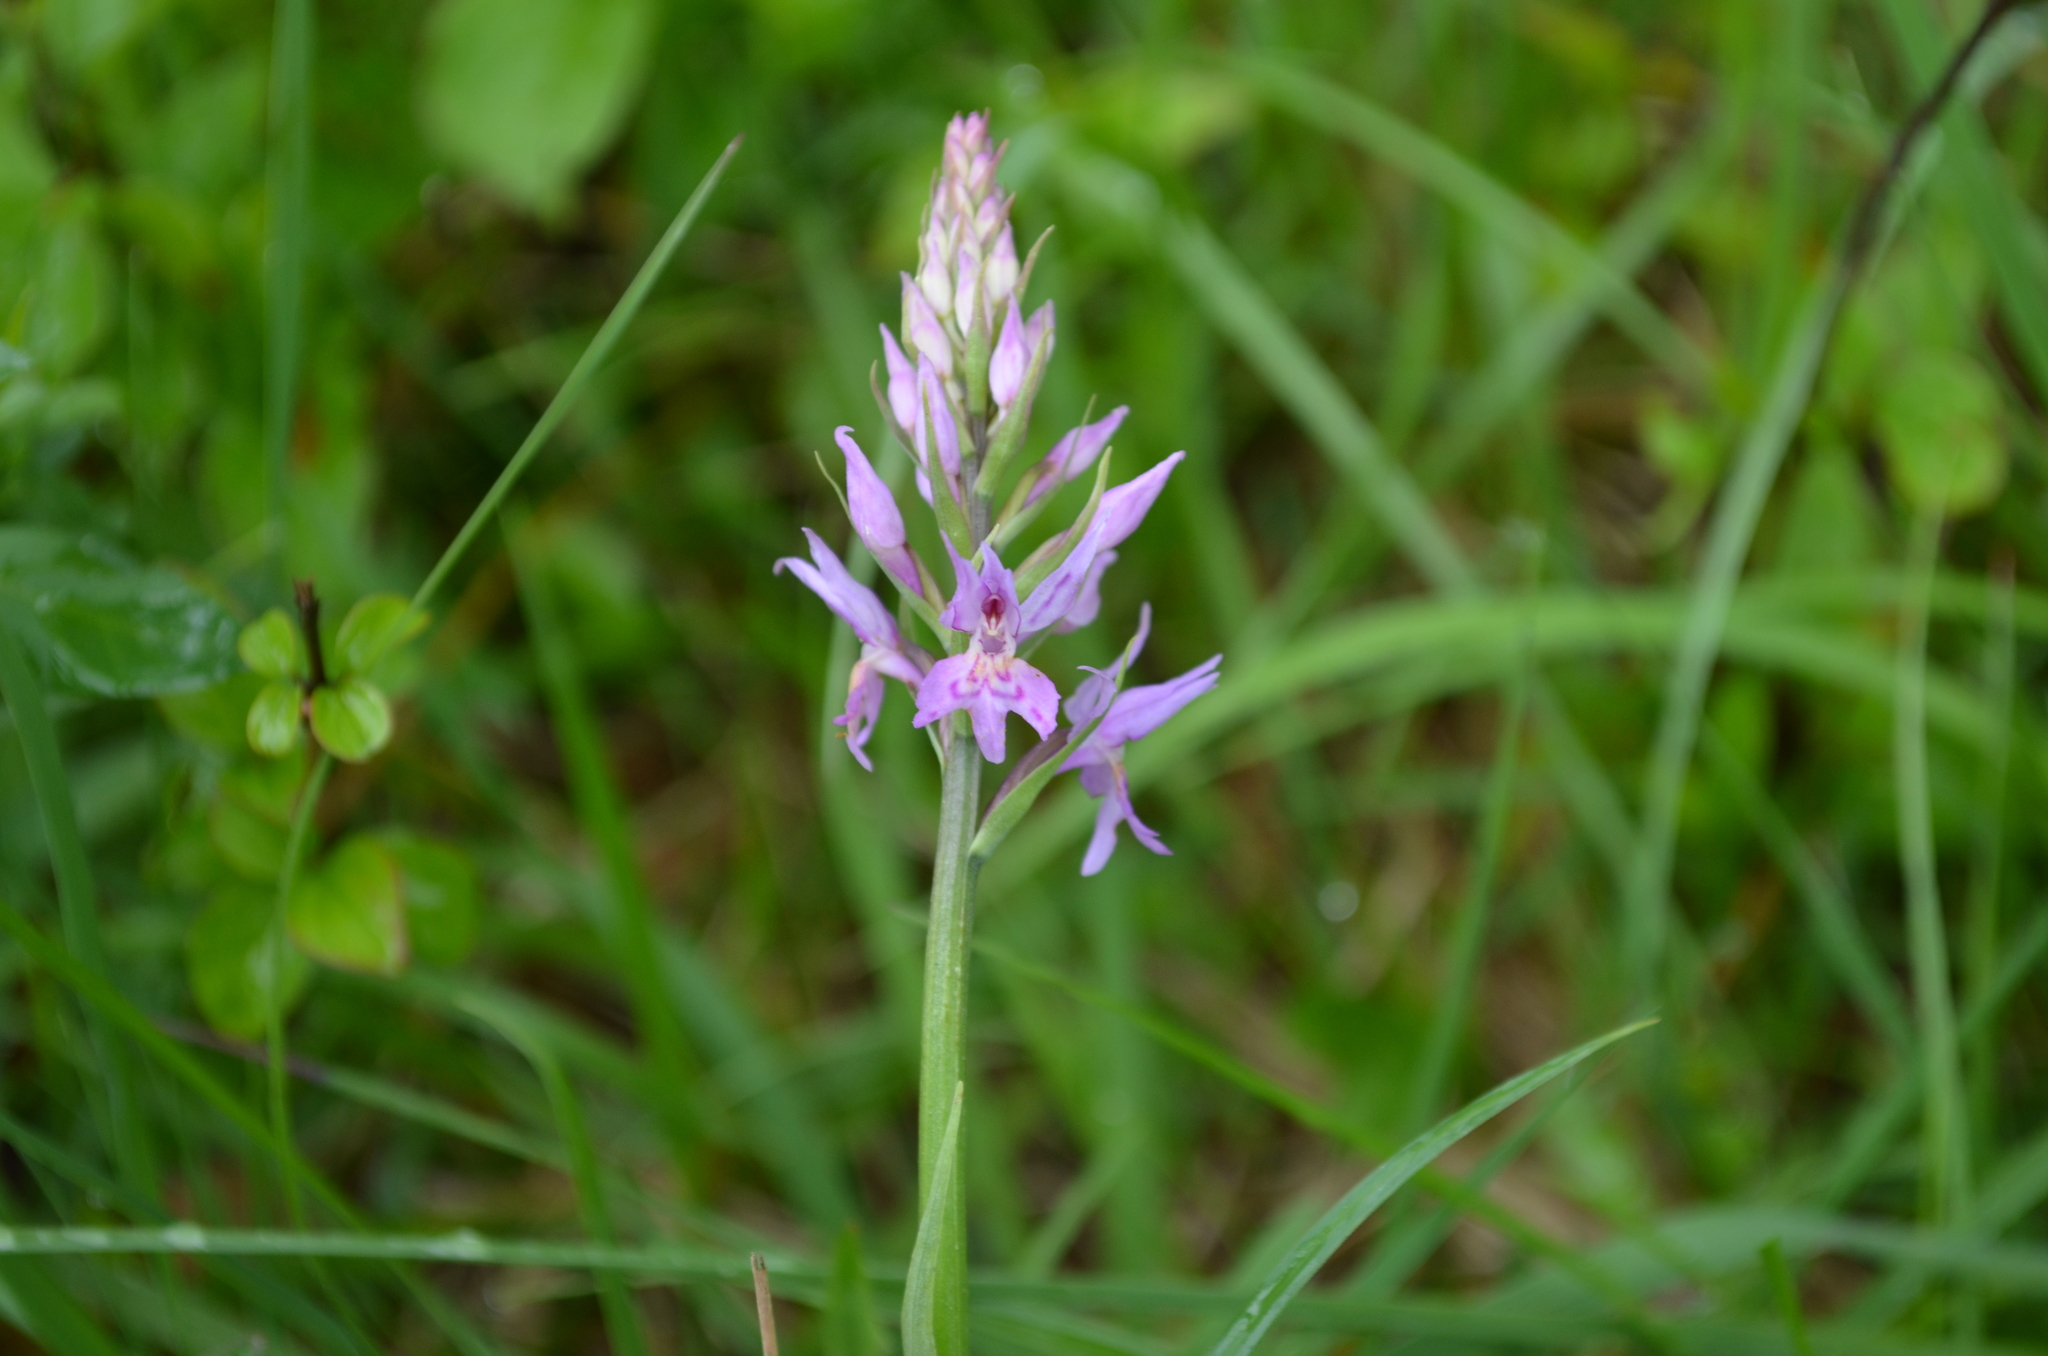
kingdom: Plantae
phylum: Tracheophyta
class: Liliopsida
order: Asparagales
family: Orchidaceae
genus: Dactylorhiza
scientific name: Dactylorhiza maculata
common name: Heath spotted-orchid
